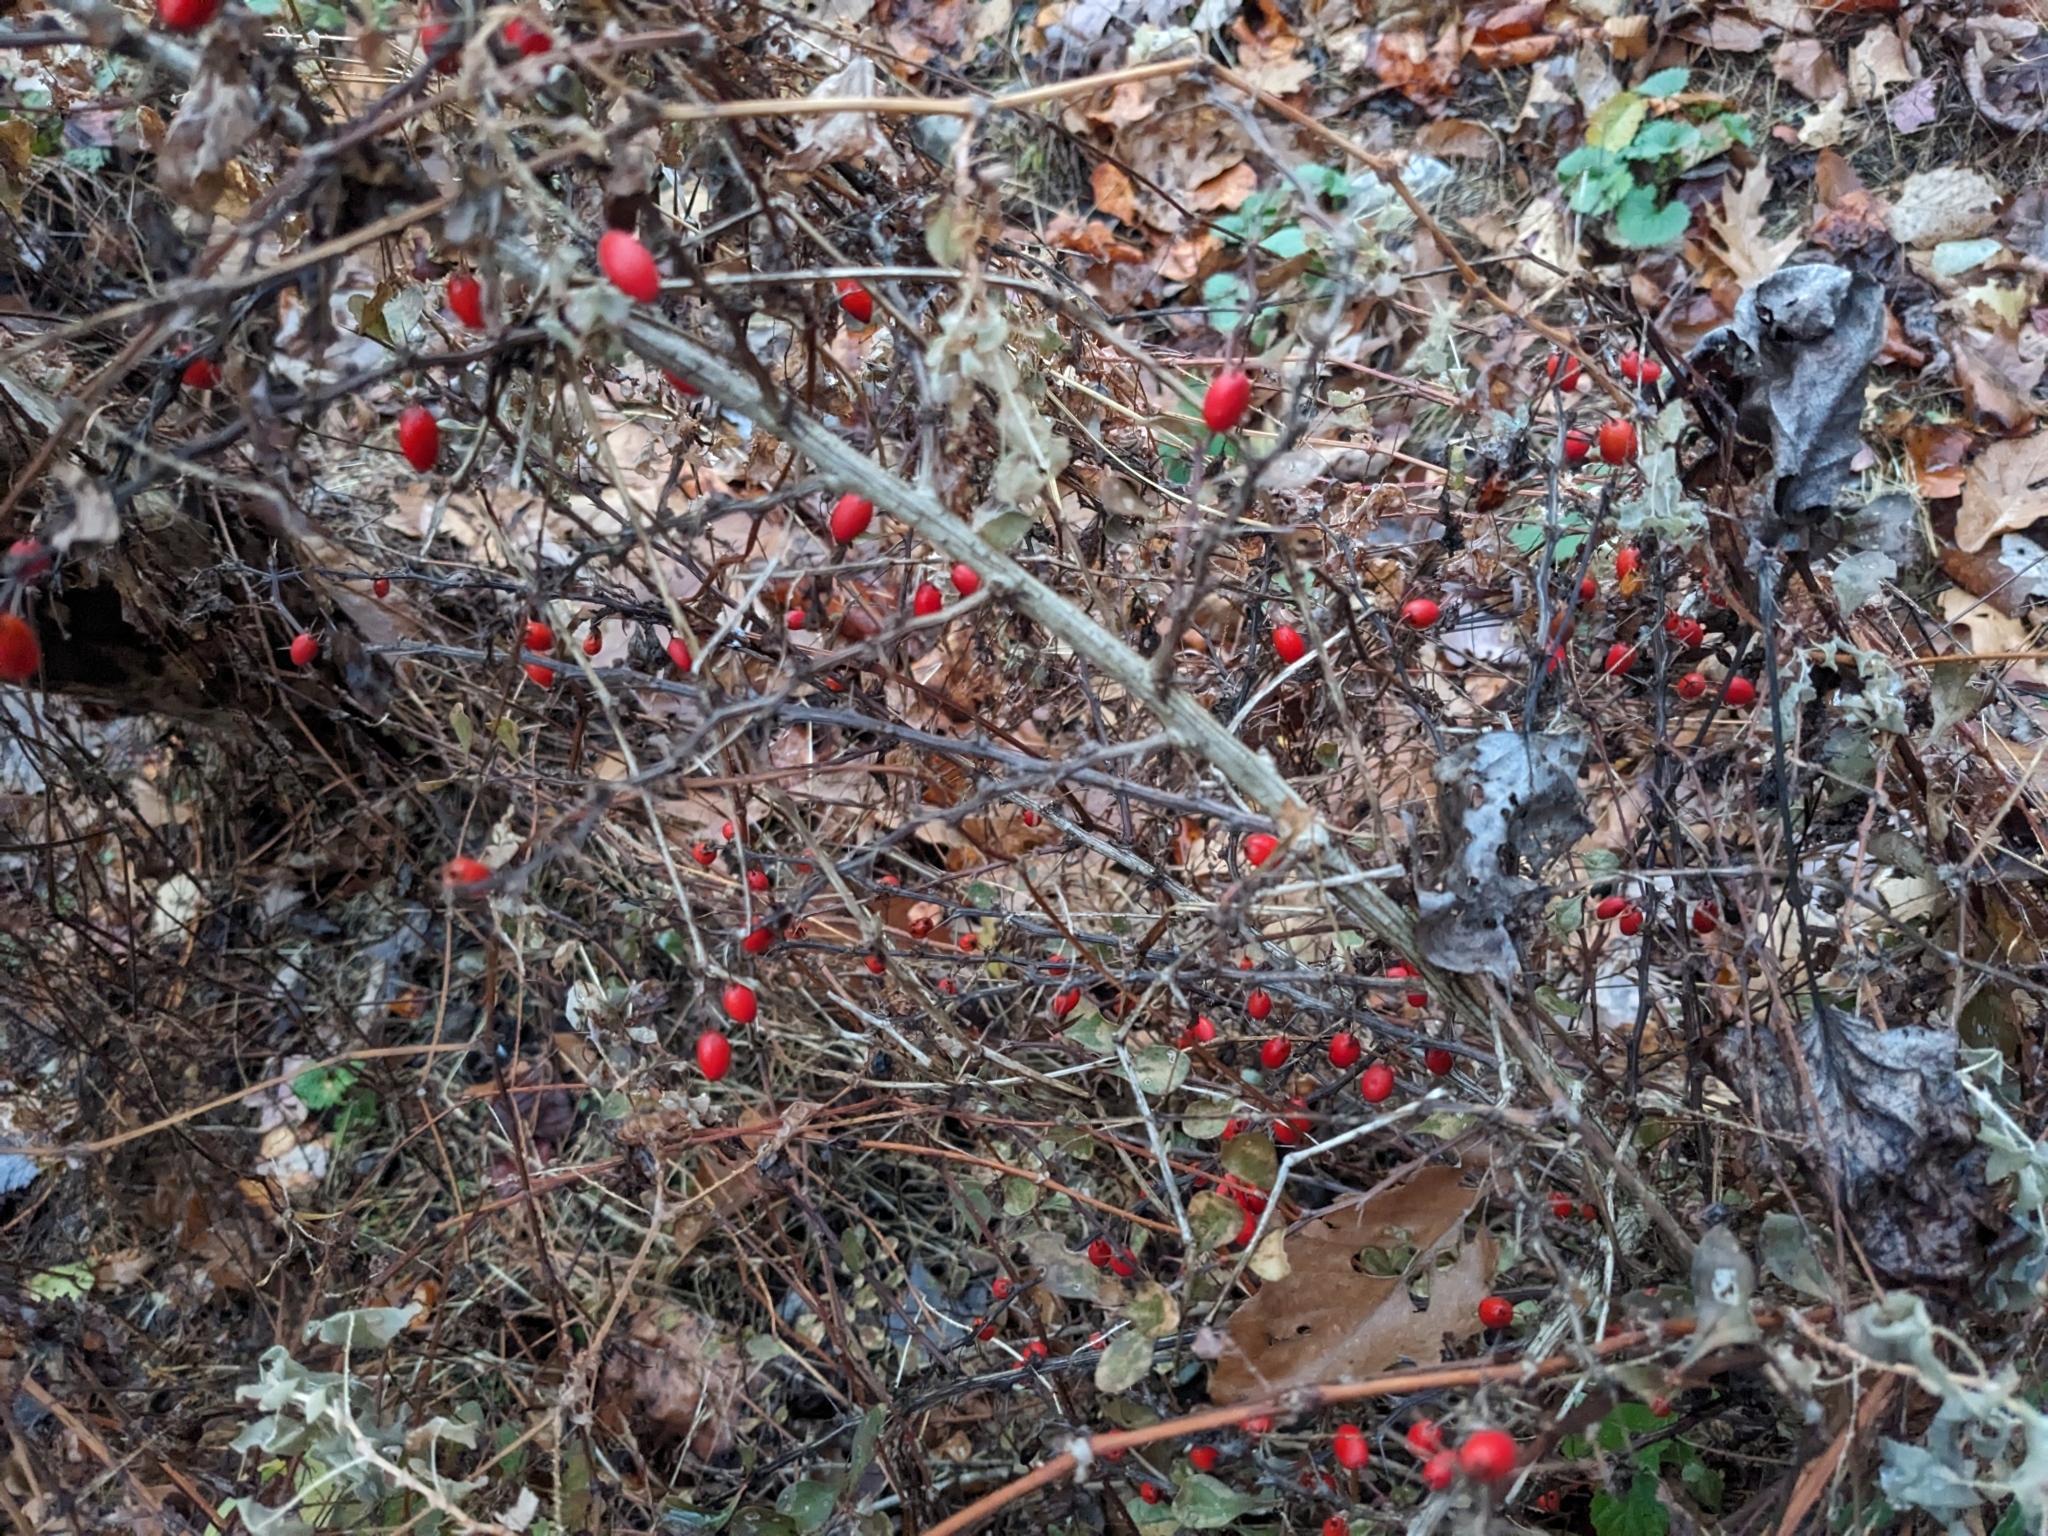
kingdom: Plantae
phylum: Tracheophyta
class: Magnoliopsida
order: Ranunculales
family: Berberidaceae
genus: Berberis
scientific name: Berberis thunbergii
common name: Japanese barberry
